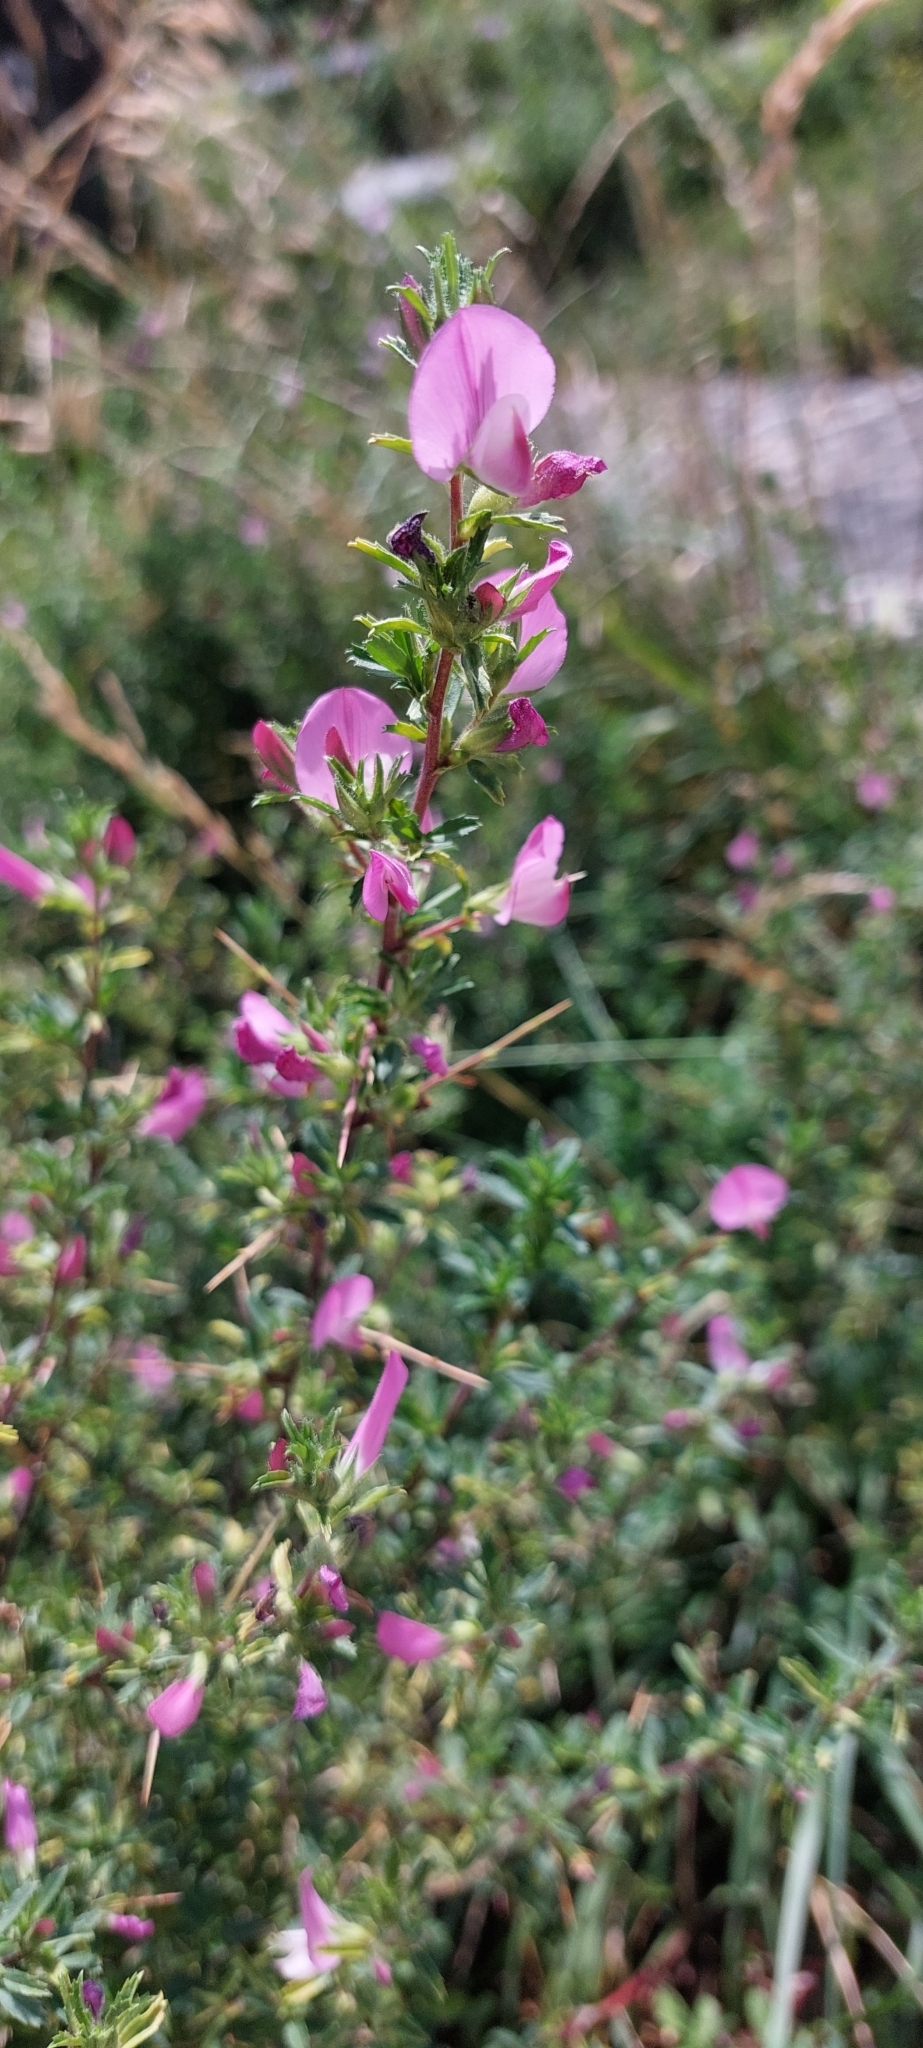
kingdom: Plantae
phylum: Tracheophyta
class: Magnoliopsida
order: Fabales
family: Fabaceae
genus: Ononis
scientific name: Ononis spinosa
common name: Spiny restharrow
